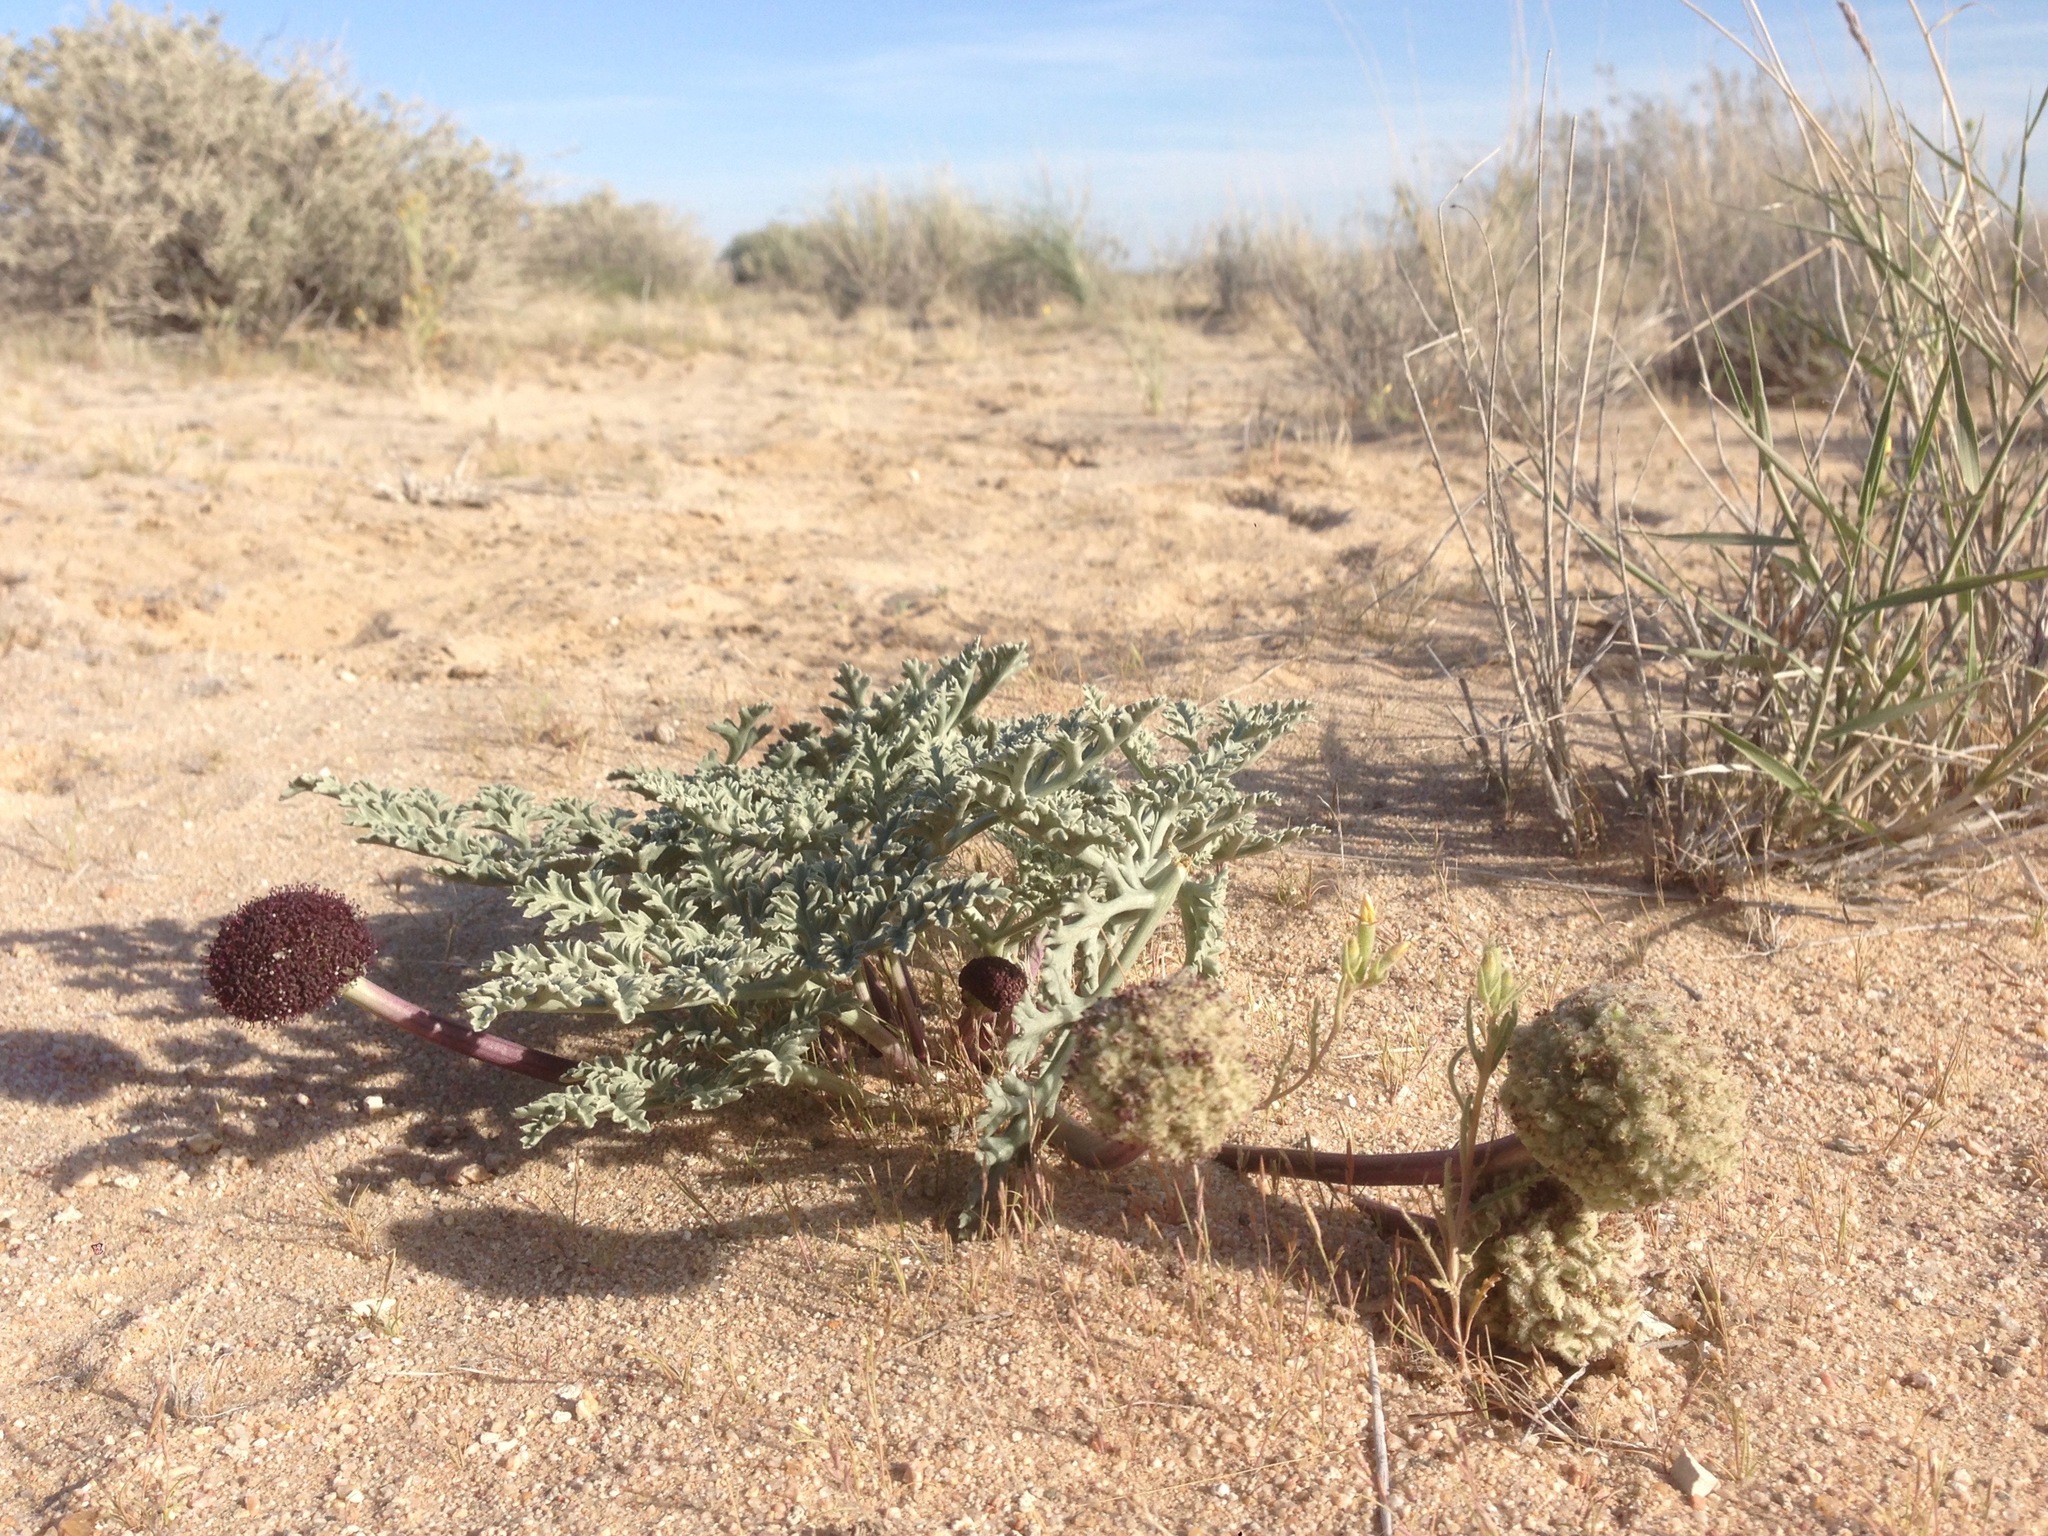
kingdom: Plantae
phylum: Tracheophyta
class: Magnoliopsida
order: Apiales
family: Apiaceae
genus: Cymopterus
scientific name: Cymopterus deserticola
